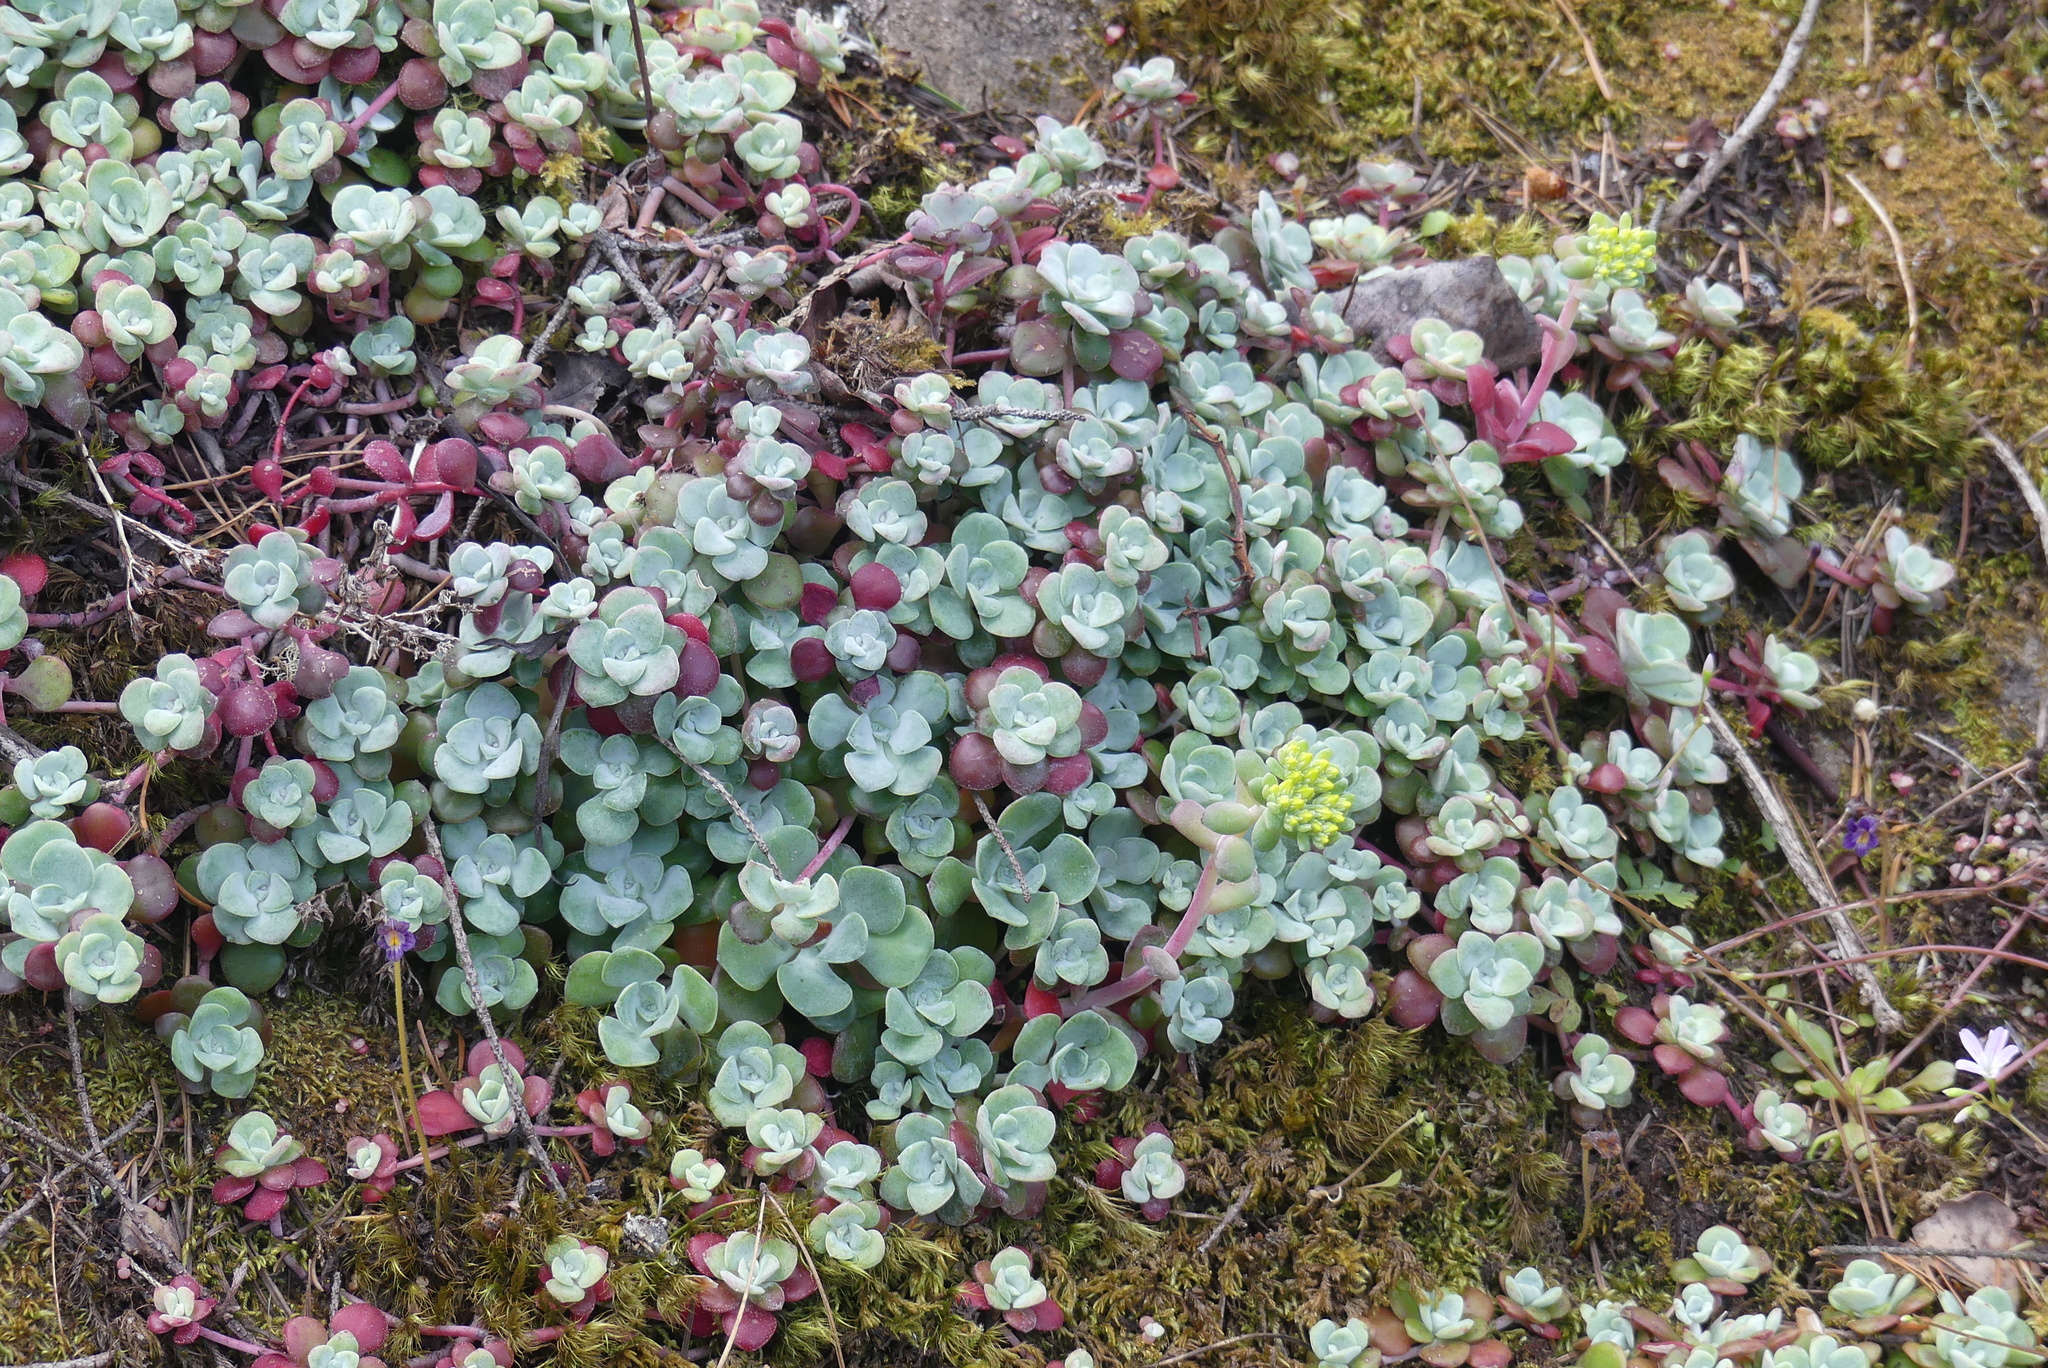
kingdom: Plantae
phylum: Tracheophyta
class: Magnoliopsida
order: Saxifragales
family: Crassulaceae
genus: Sedum
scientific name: Sedum spathulifolium
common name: Colorado stonecrop
